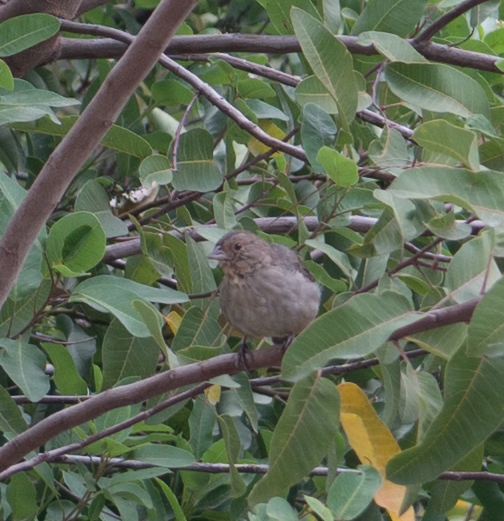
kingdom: Animalia
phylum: Chordata
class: Aves
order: Passeriformes
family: Passerellidae
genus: Melozone
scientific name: Melozone crissalis
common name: California towhee
